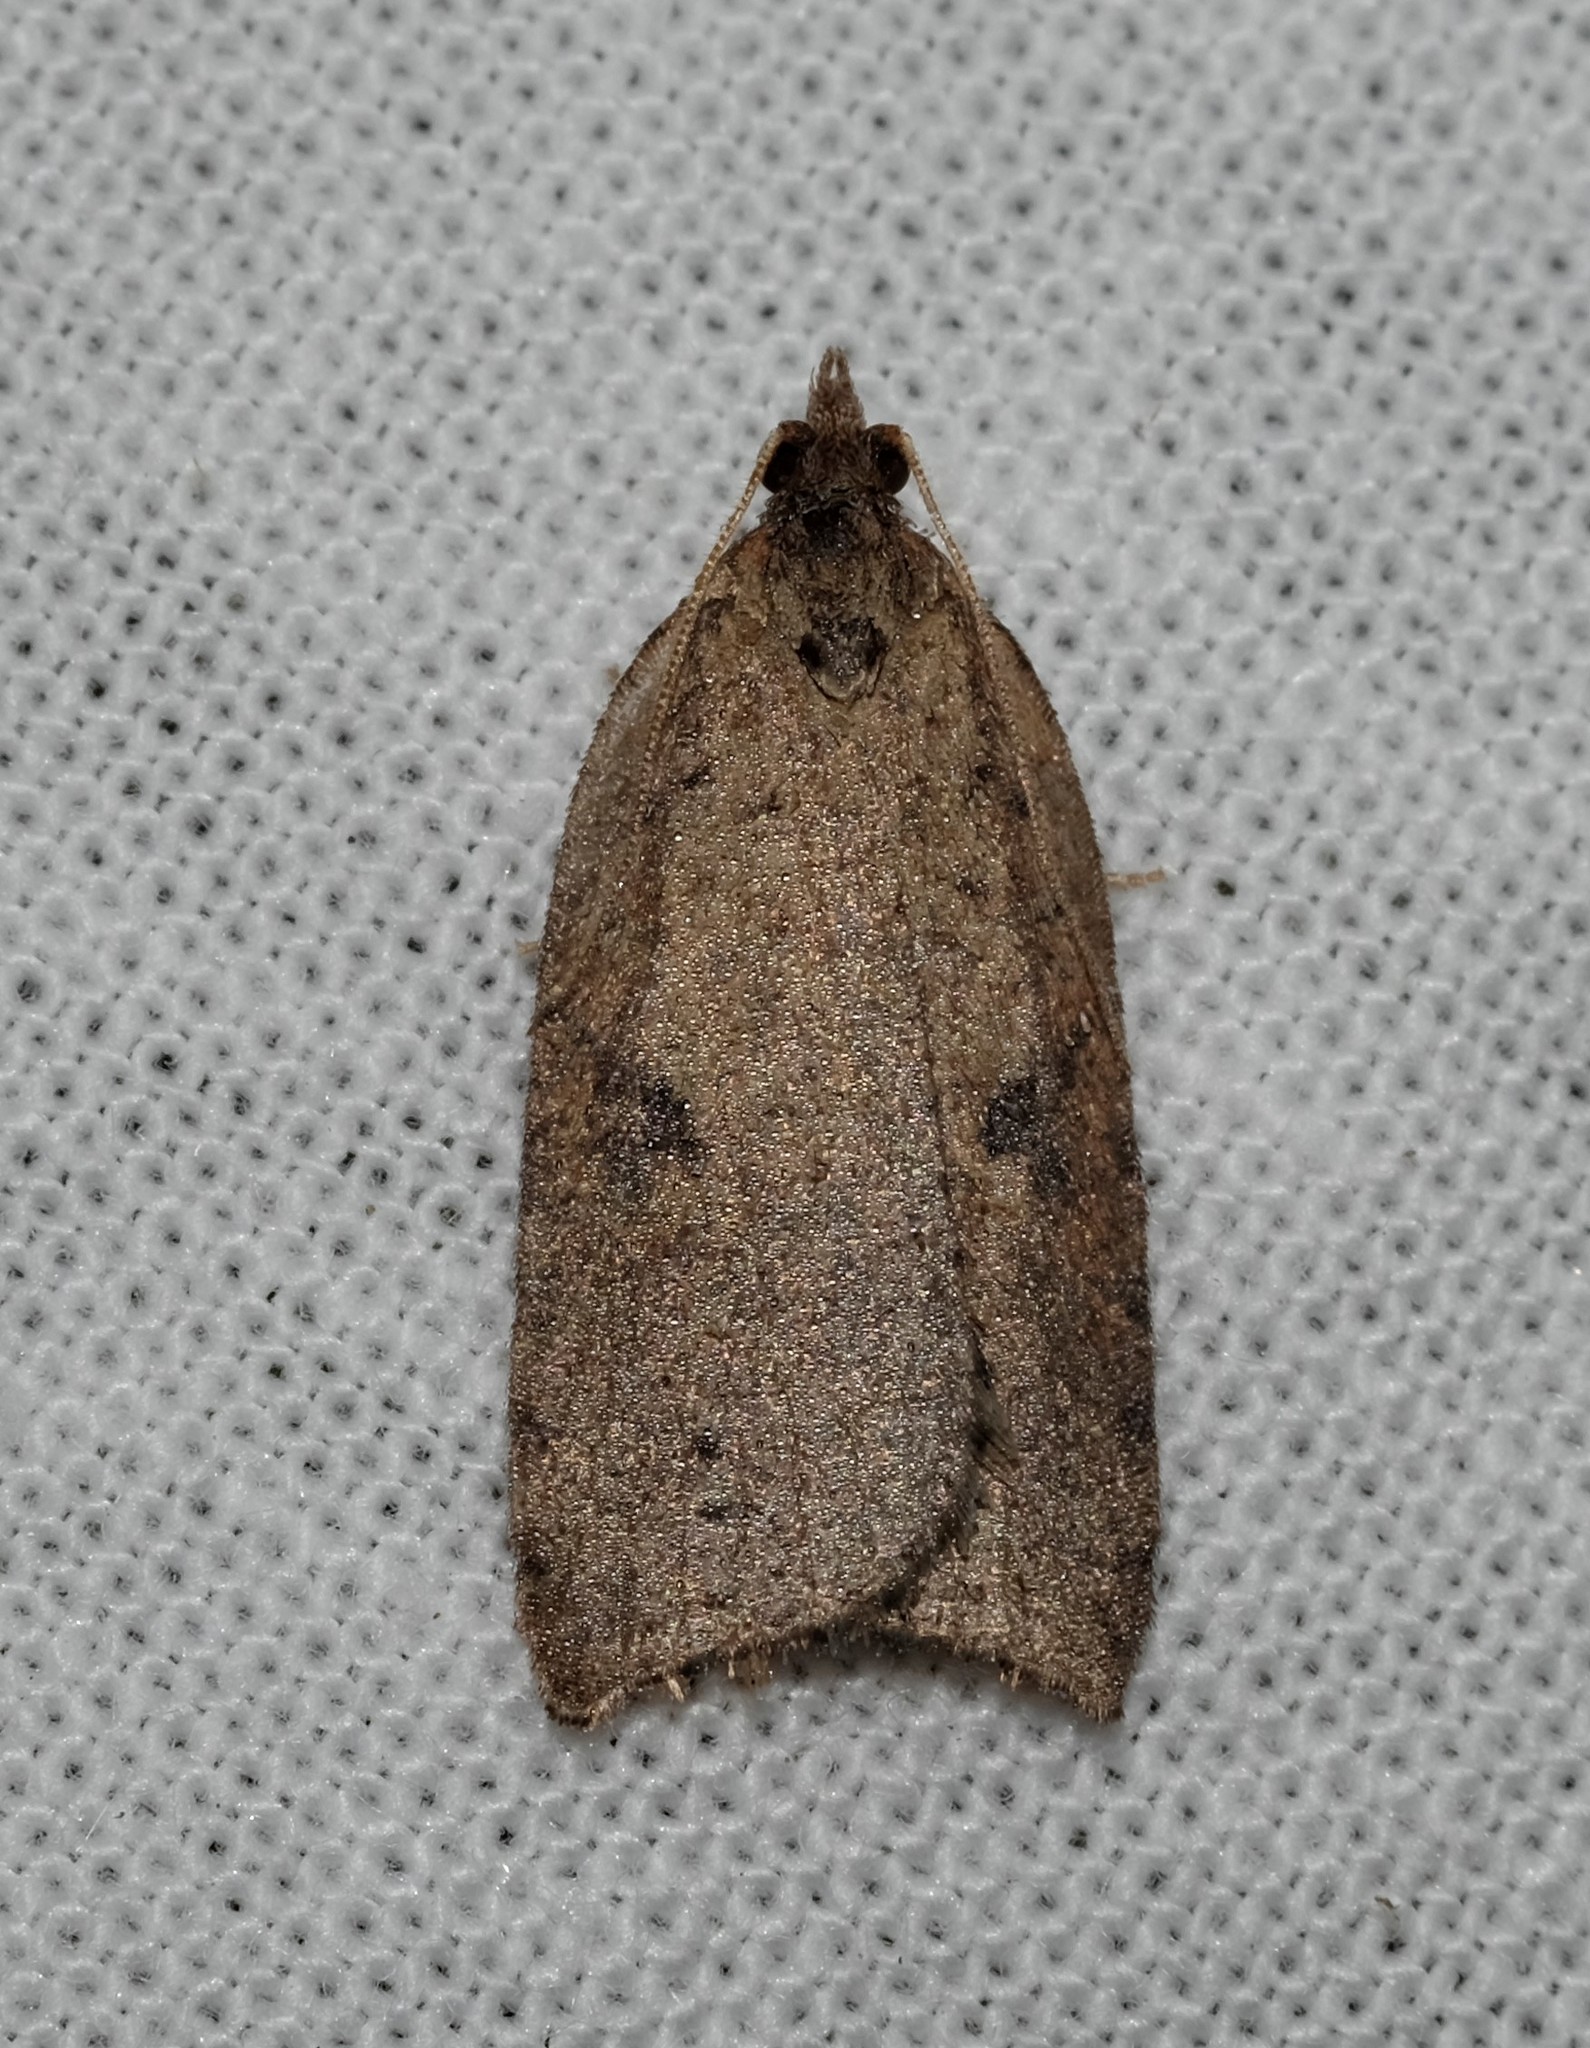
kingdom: Animalia
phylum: Arthropoda
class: Insecta
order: Lepidoptera
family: Tortricidae
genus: Meritastis
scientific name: Meritastis polygraphana
